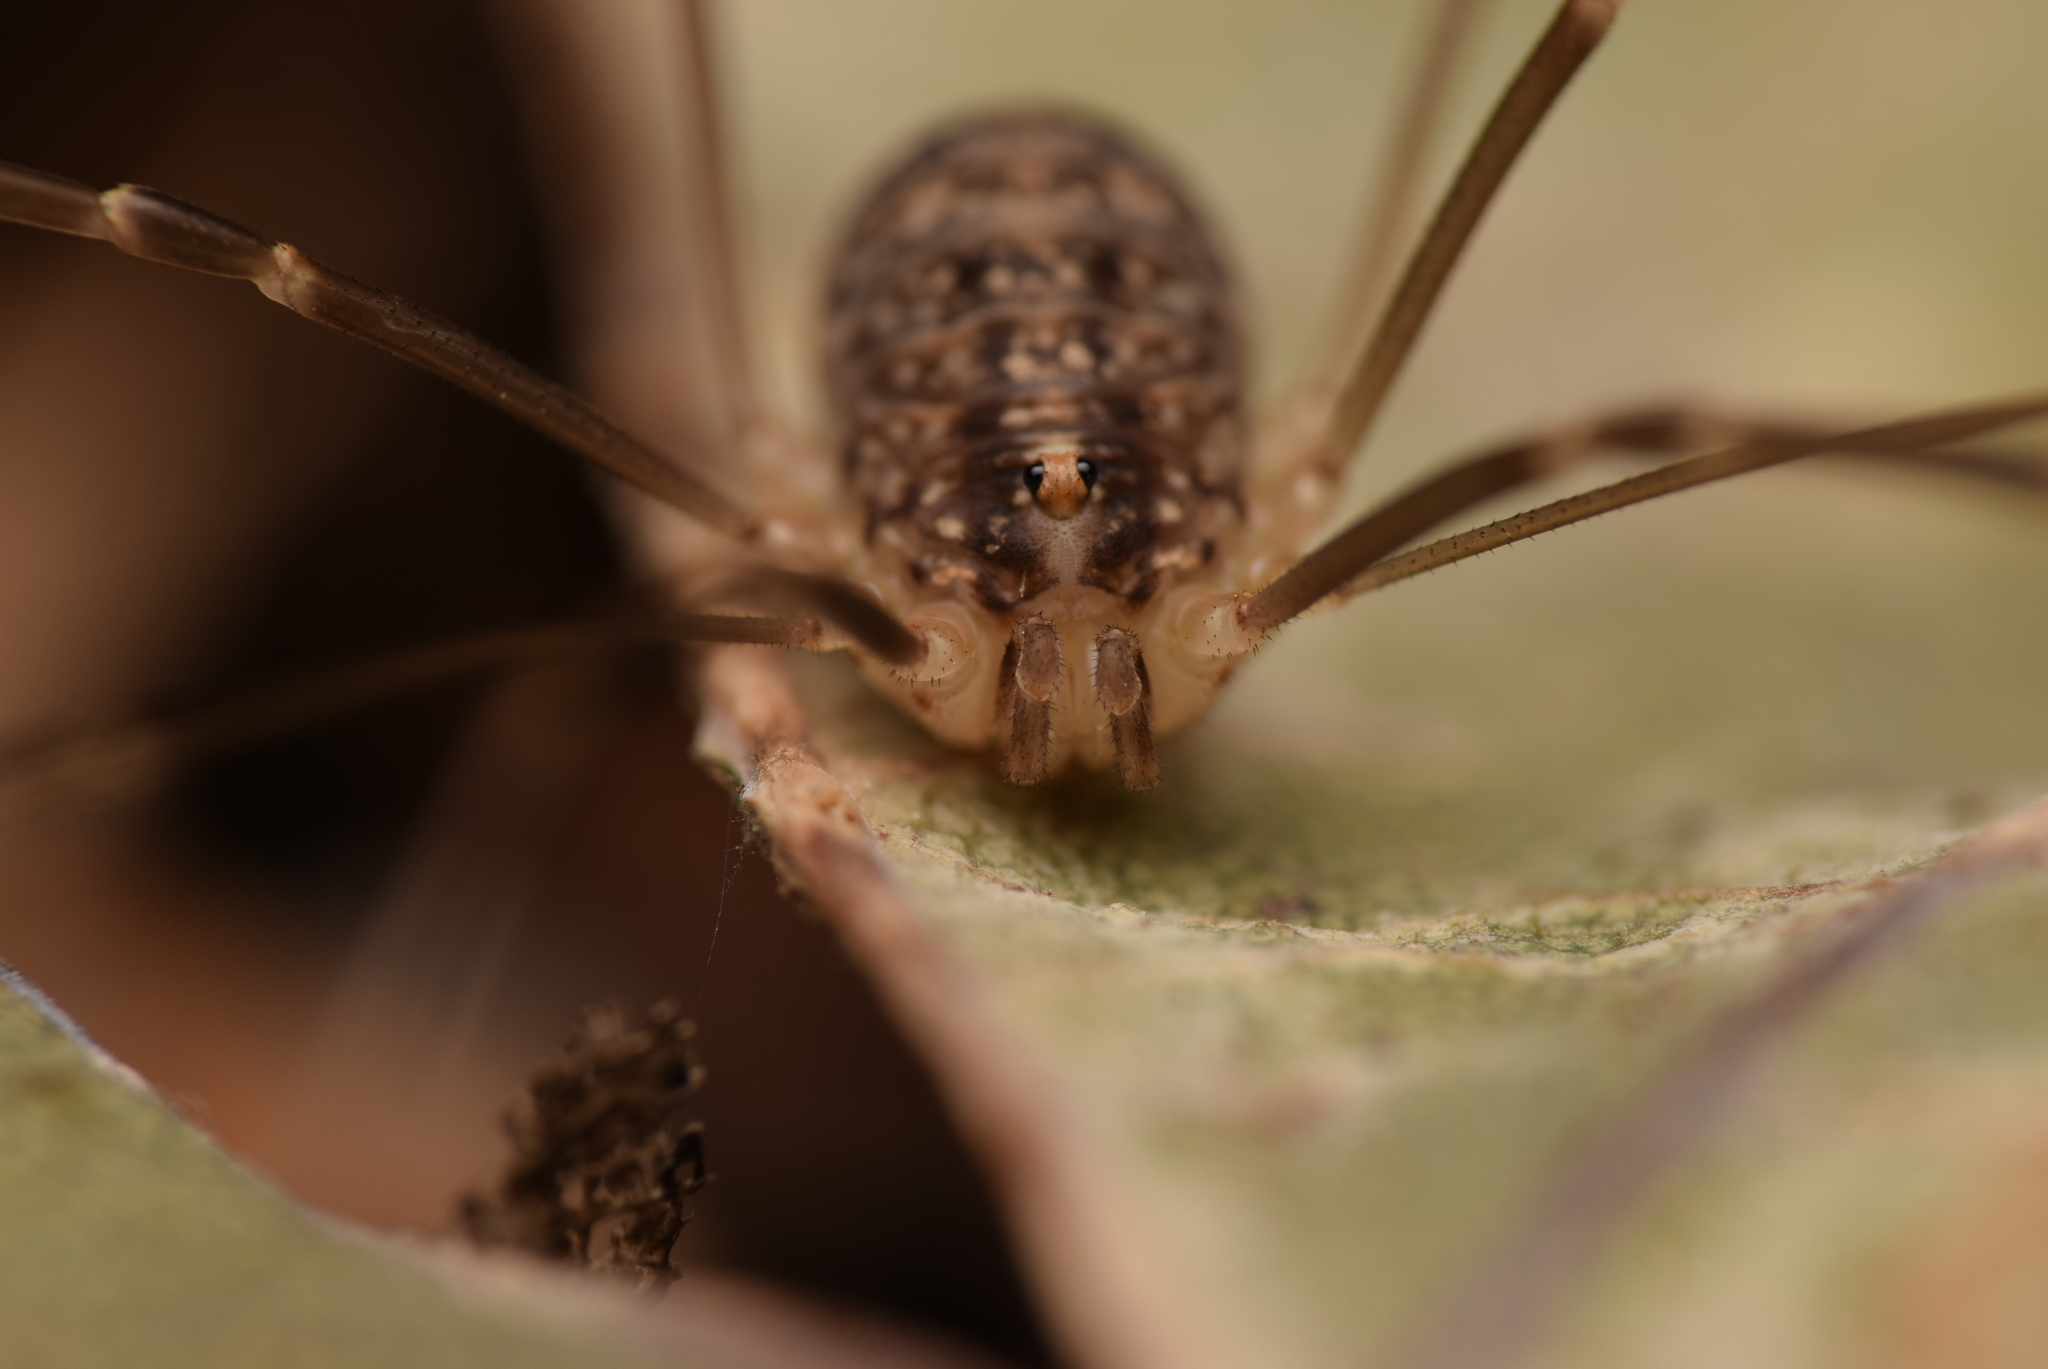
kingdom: Animalia
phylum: Arthropoda
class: Arachnida
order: Opiliones
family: Sclerosomatidae
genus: Nelima
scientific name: Nelima silvatica
